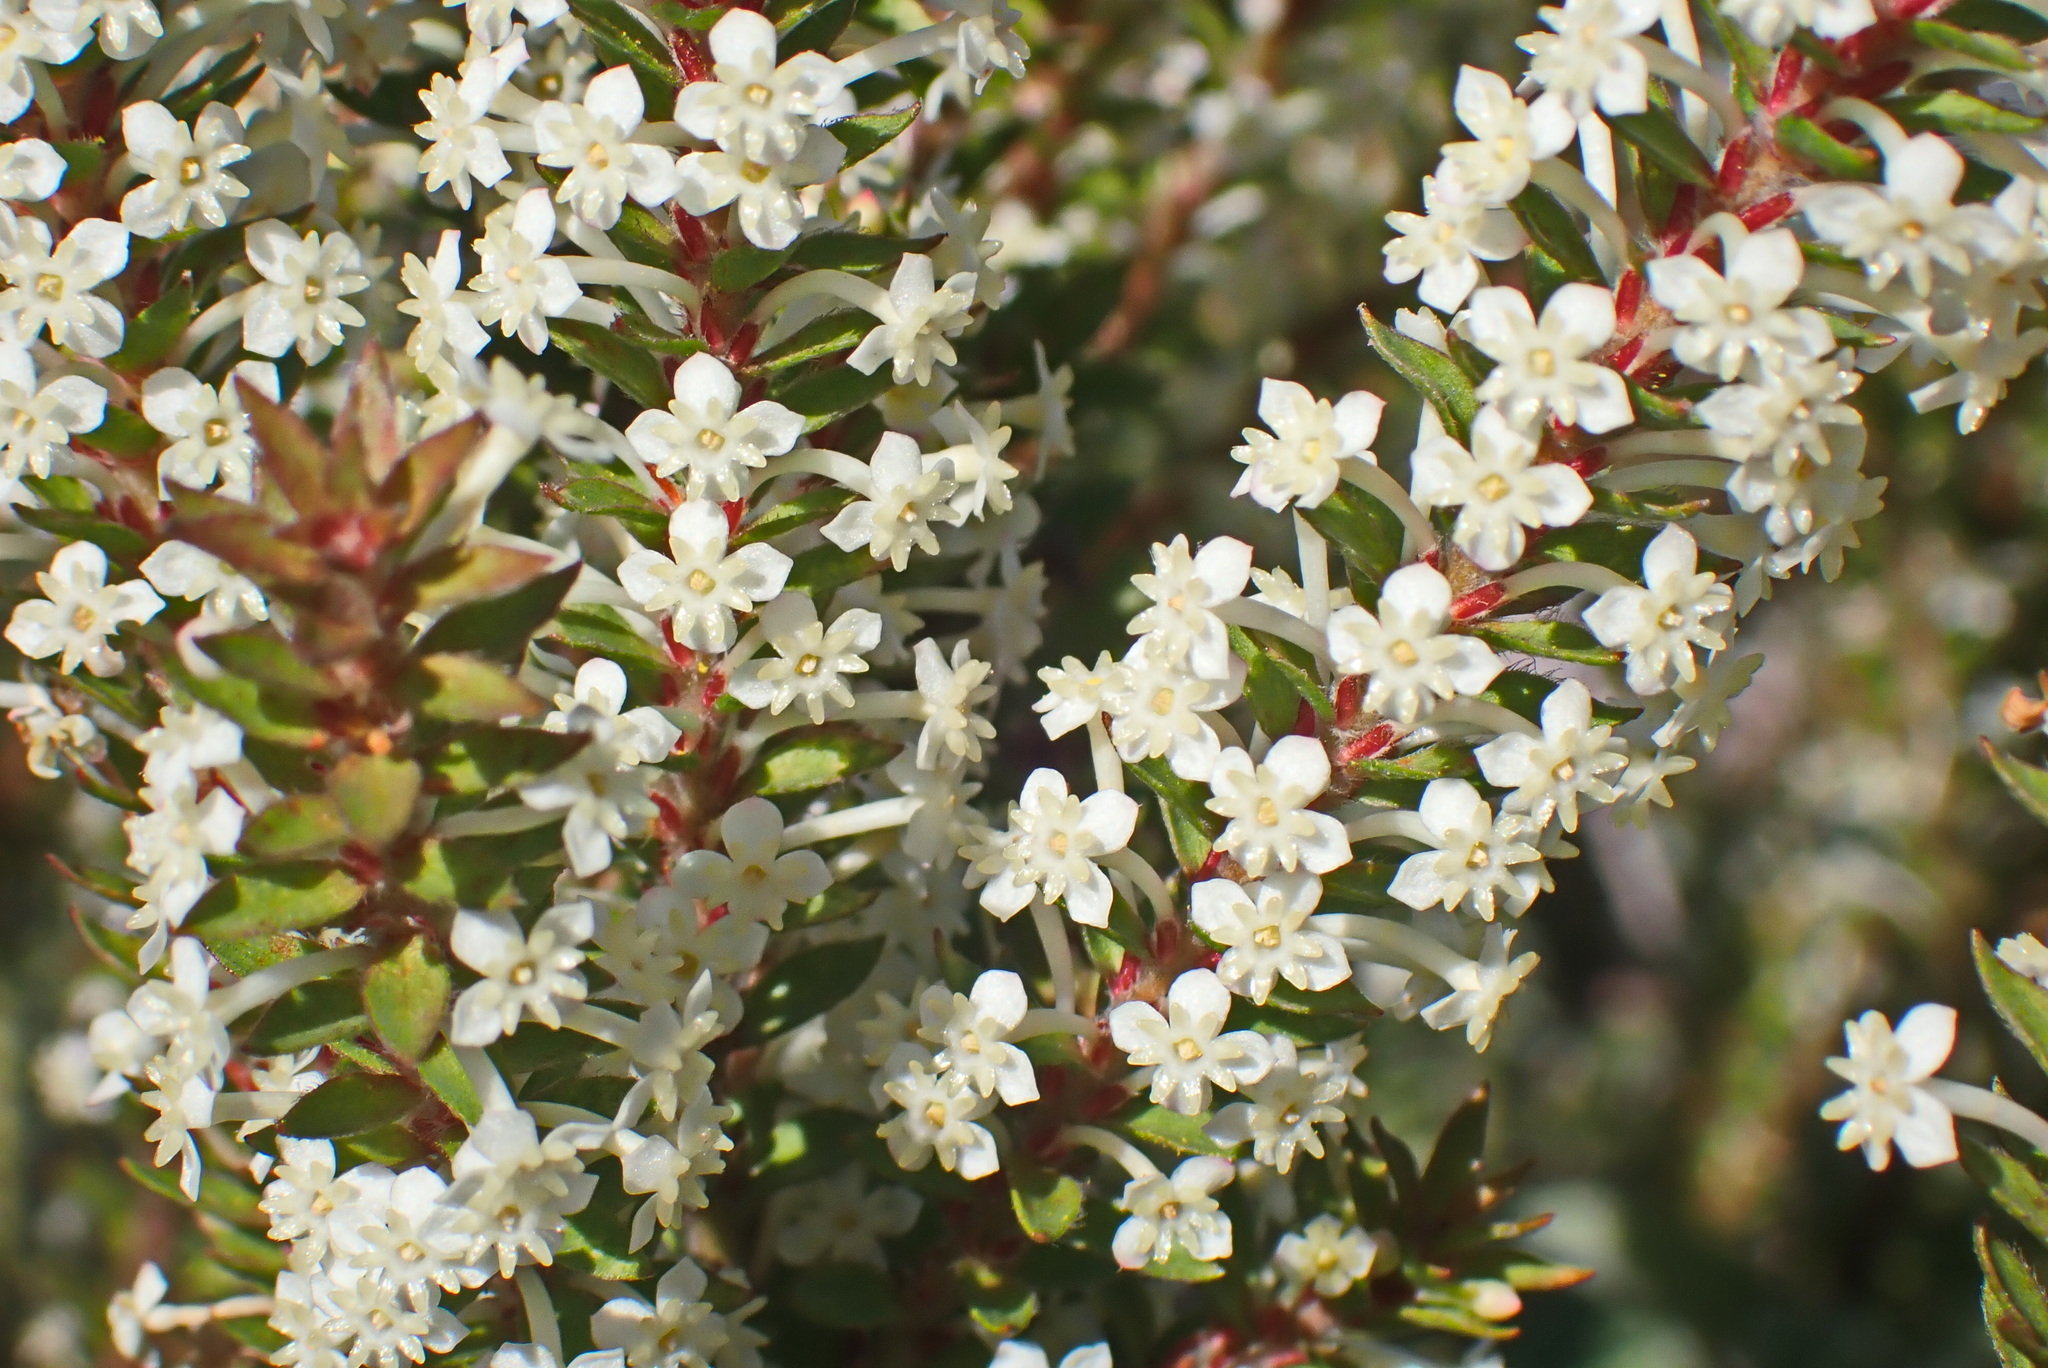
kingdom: Plantae
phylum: Tracheophyta
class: Magnoliopsida
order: Malvales
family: Thymelaeaceae
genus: Struthiola
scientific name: Struthiola hirsuta
